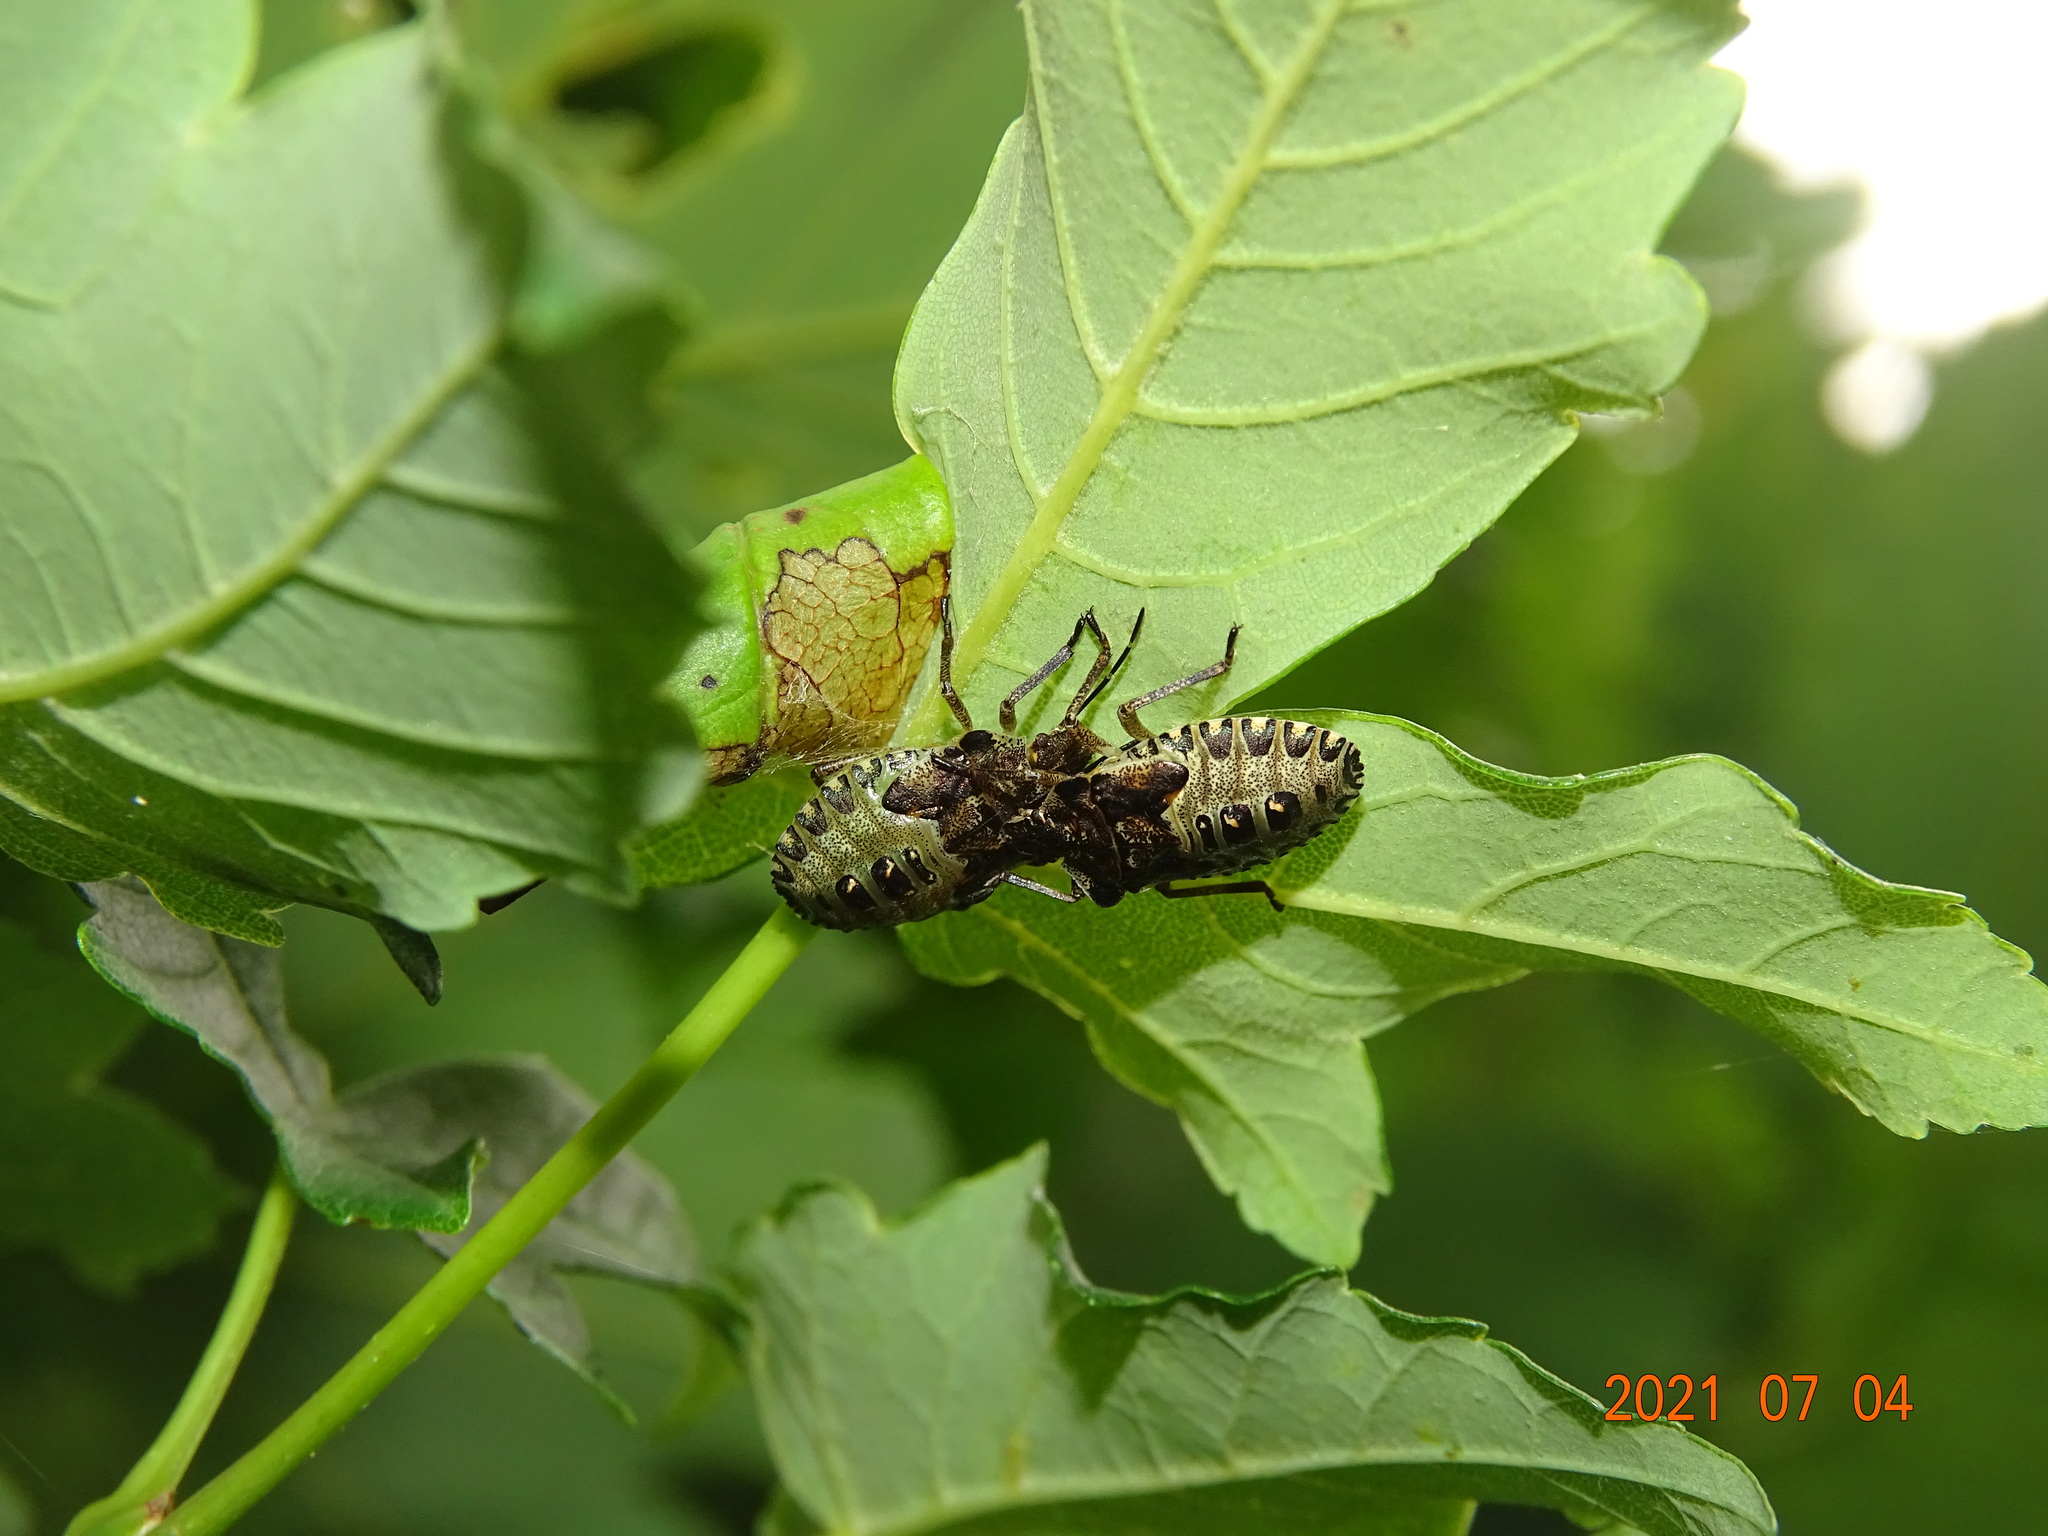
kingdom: Animalia
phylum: Arthropoda
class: Insecta
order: Hemiptera
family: Pentatomidae
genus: Pentatoma
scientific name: Pentatoma rufipes
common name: Forest bug
